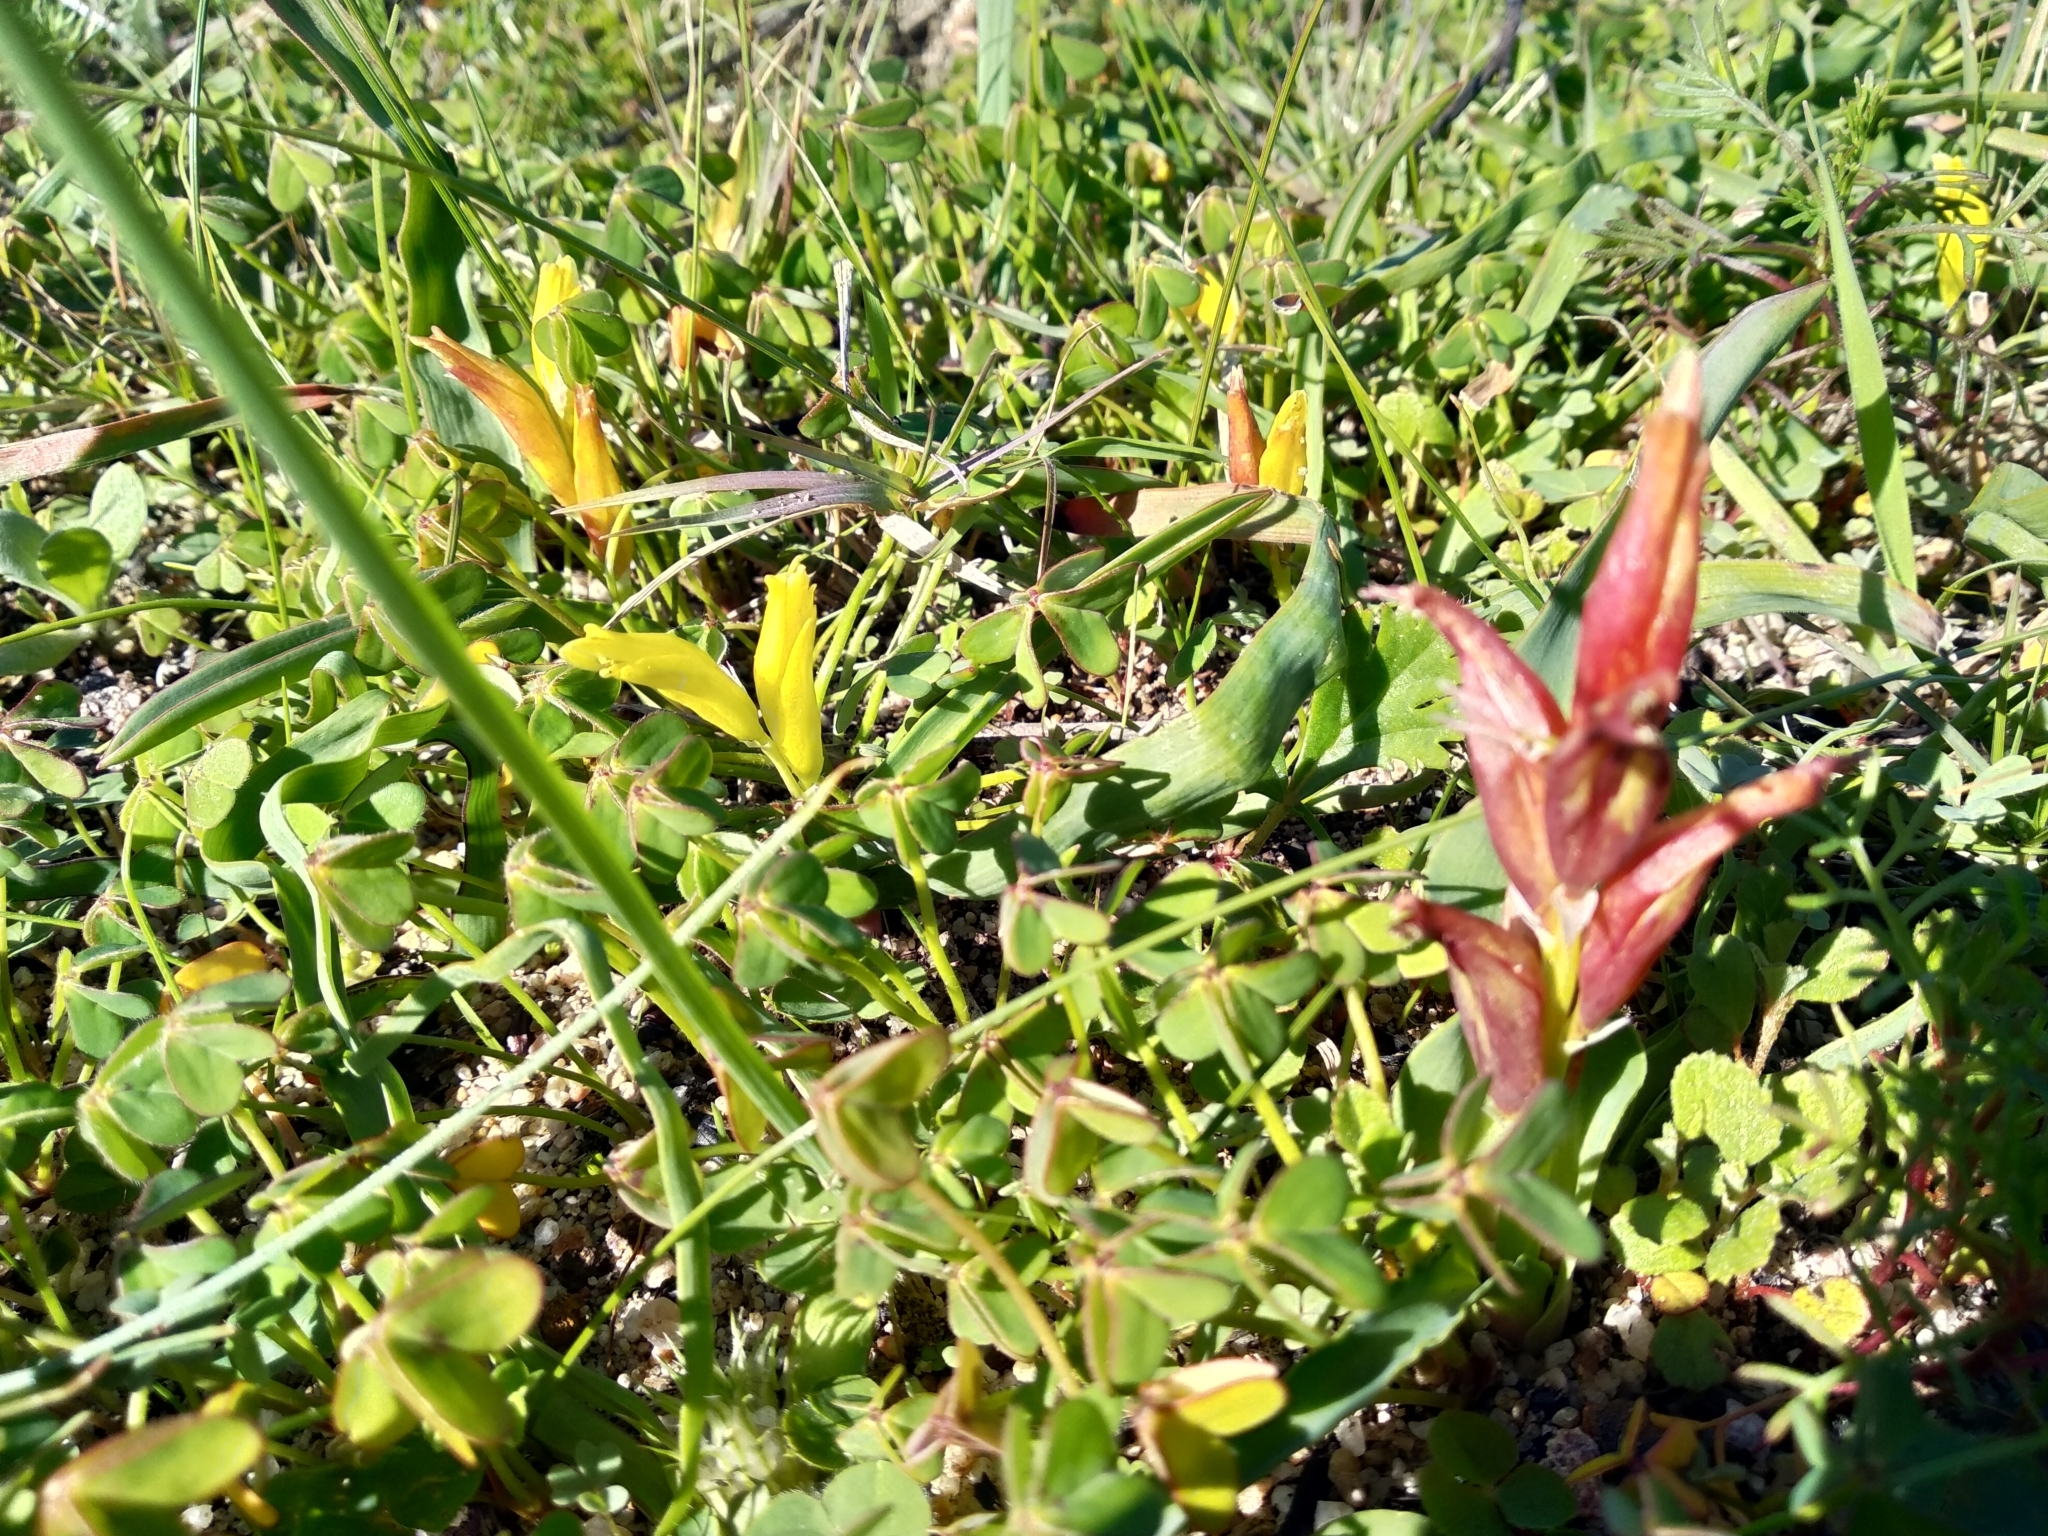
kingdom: Plantae
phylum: Tracheophyta
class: Liliopsida
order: Asparagales
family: Asparagaceae
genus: Lachenalia
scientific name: Lachenalia reflexa
